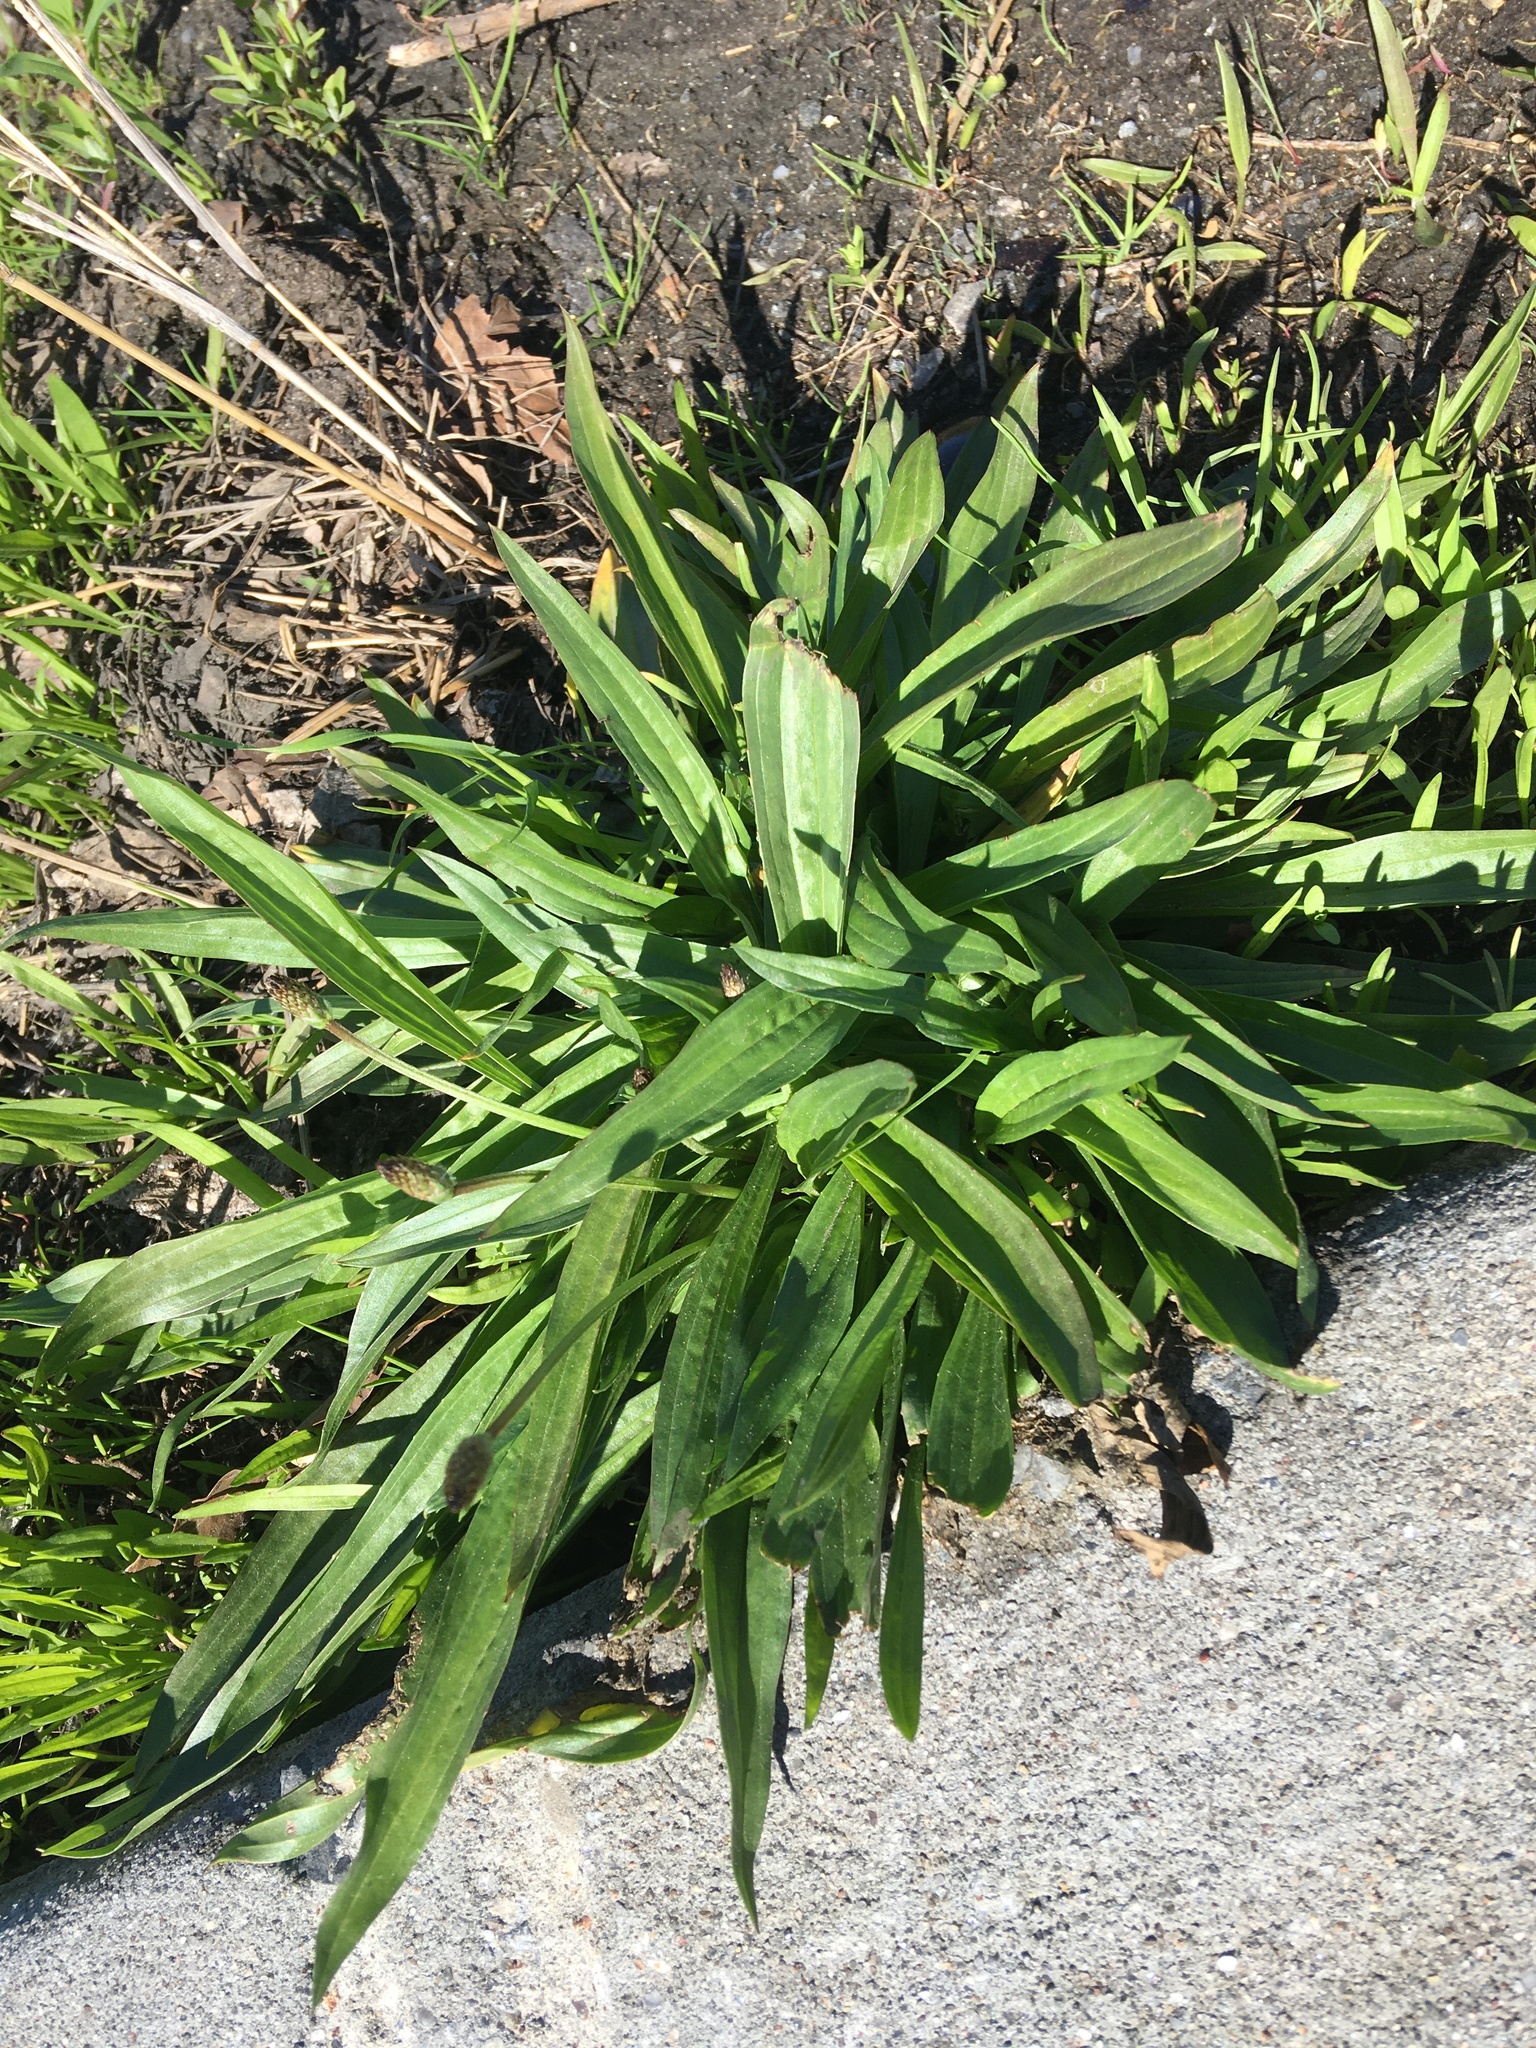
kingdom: Plantae
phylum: Tracheophyta
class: Magnoliopsida
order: Lamiales
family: Plantaginaceae
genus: Plantago
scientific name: Plantago lanceolata
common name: Ribwort plantain
